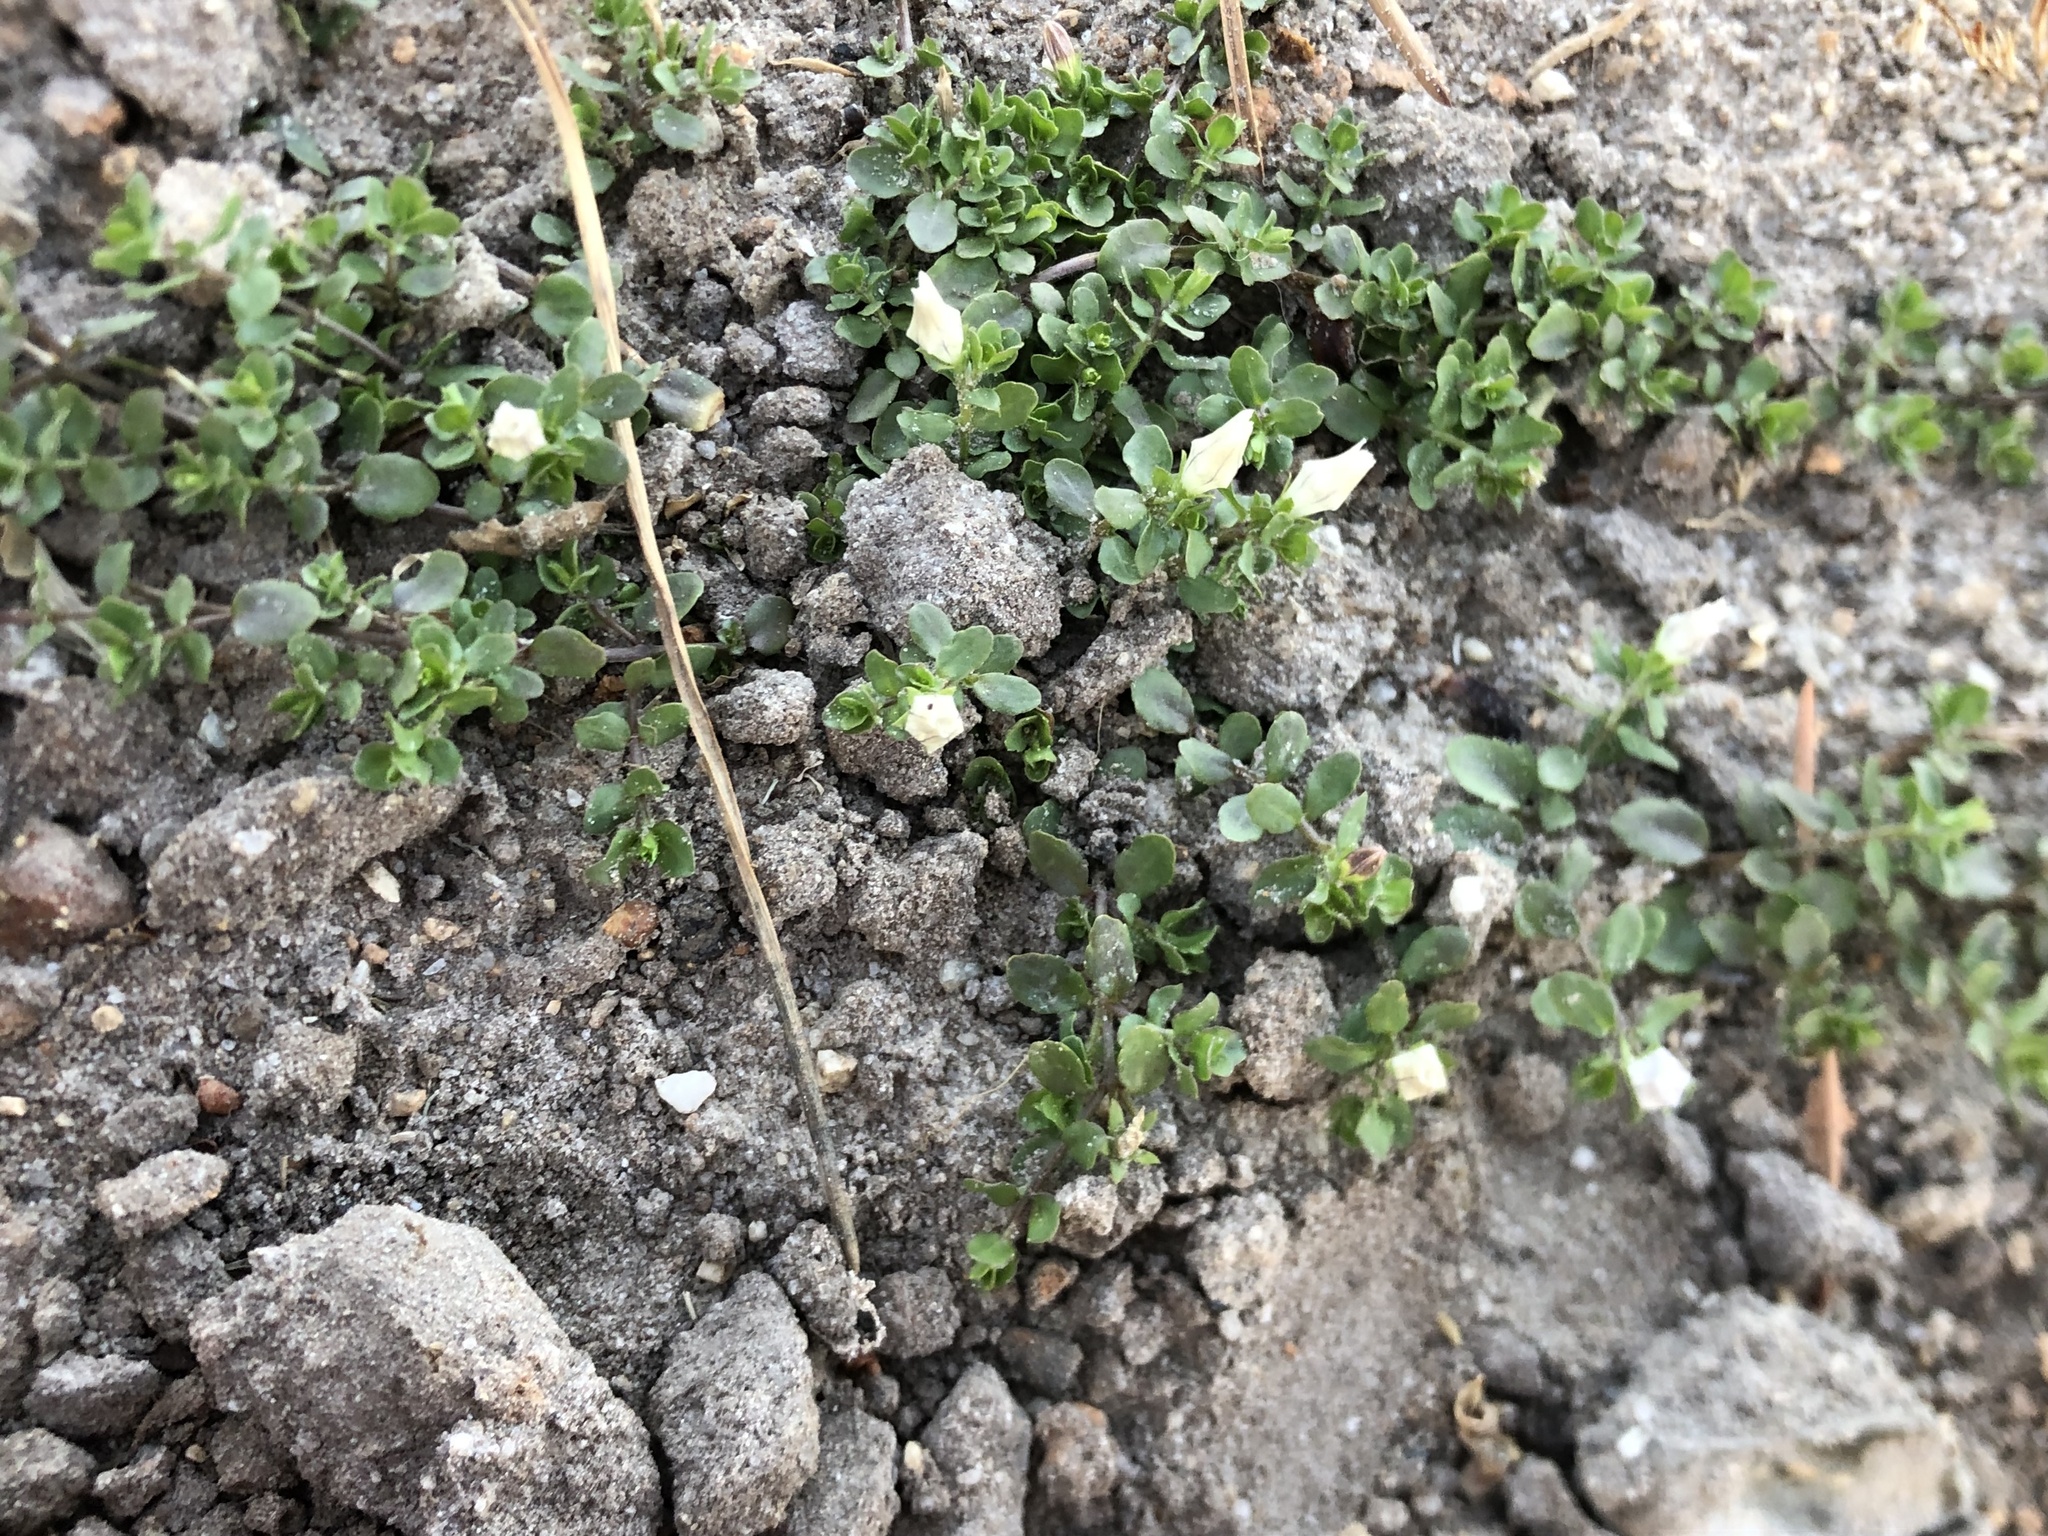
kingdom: Plantae
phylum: Tracheophyta
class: Magnoliopsida
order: Asterales
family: Campanulaceae
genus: Wahlenbergia
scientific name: Wahlenbergia procumbens
